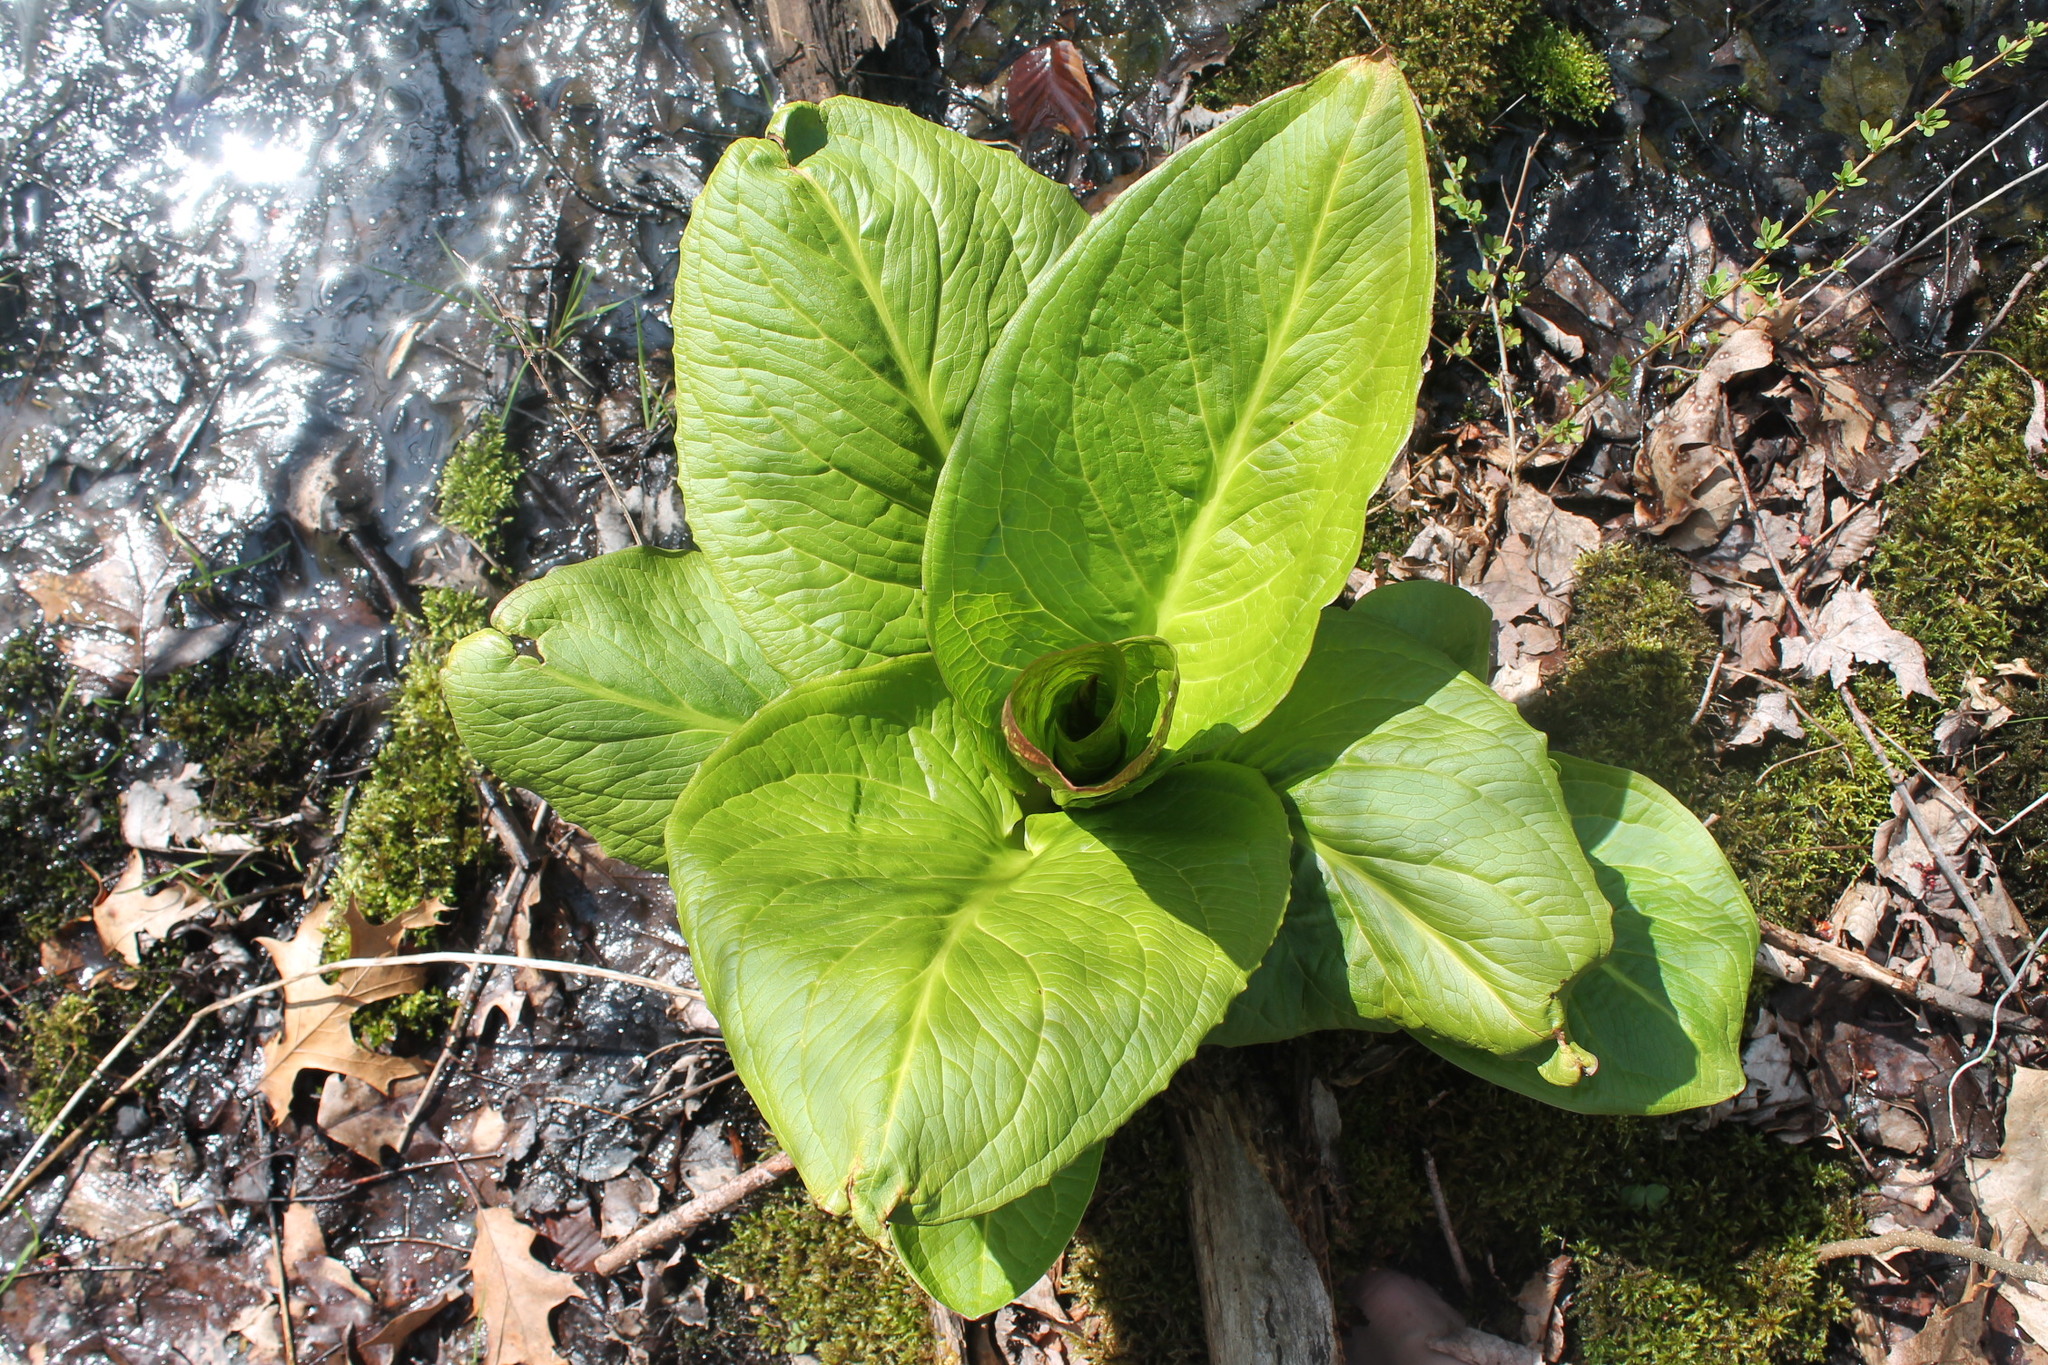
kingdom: Plantae
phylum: Tracheophyta
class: Liliopsida
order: Alismatales
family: Araceae
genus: Symplocarpus
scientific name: Symplocarpus foetidus
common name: Eastern skunk cabbage
